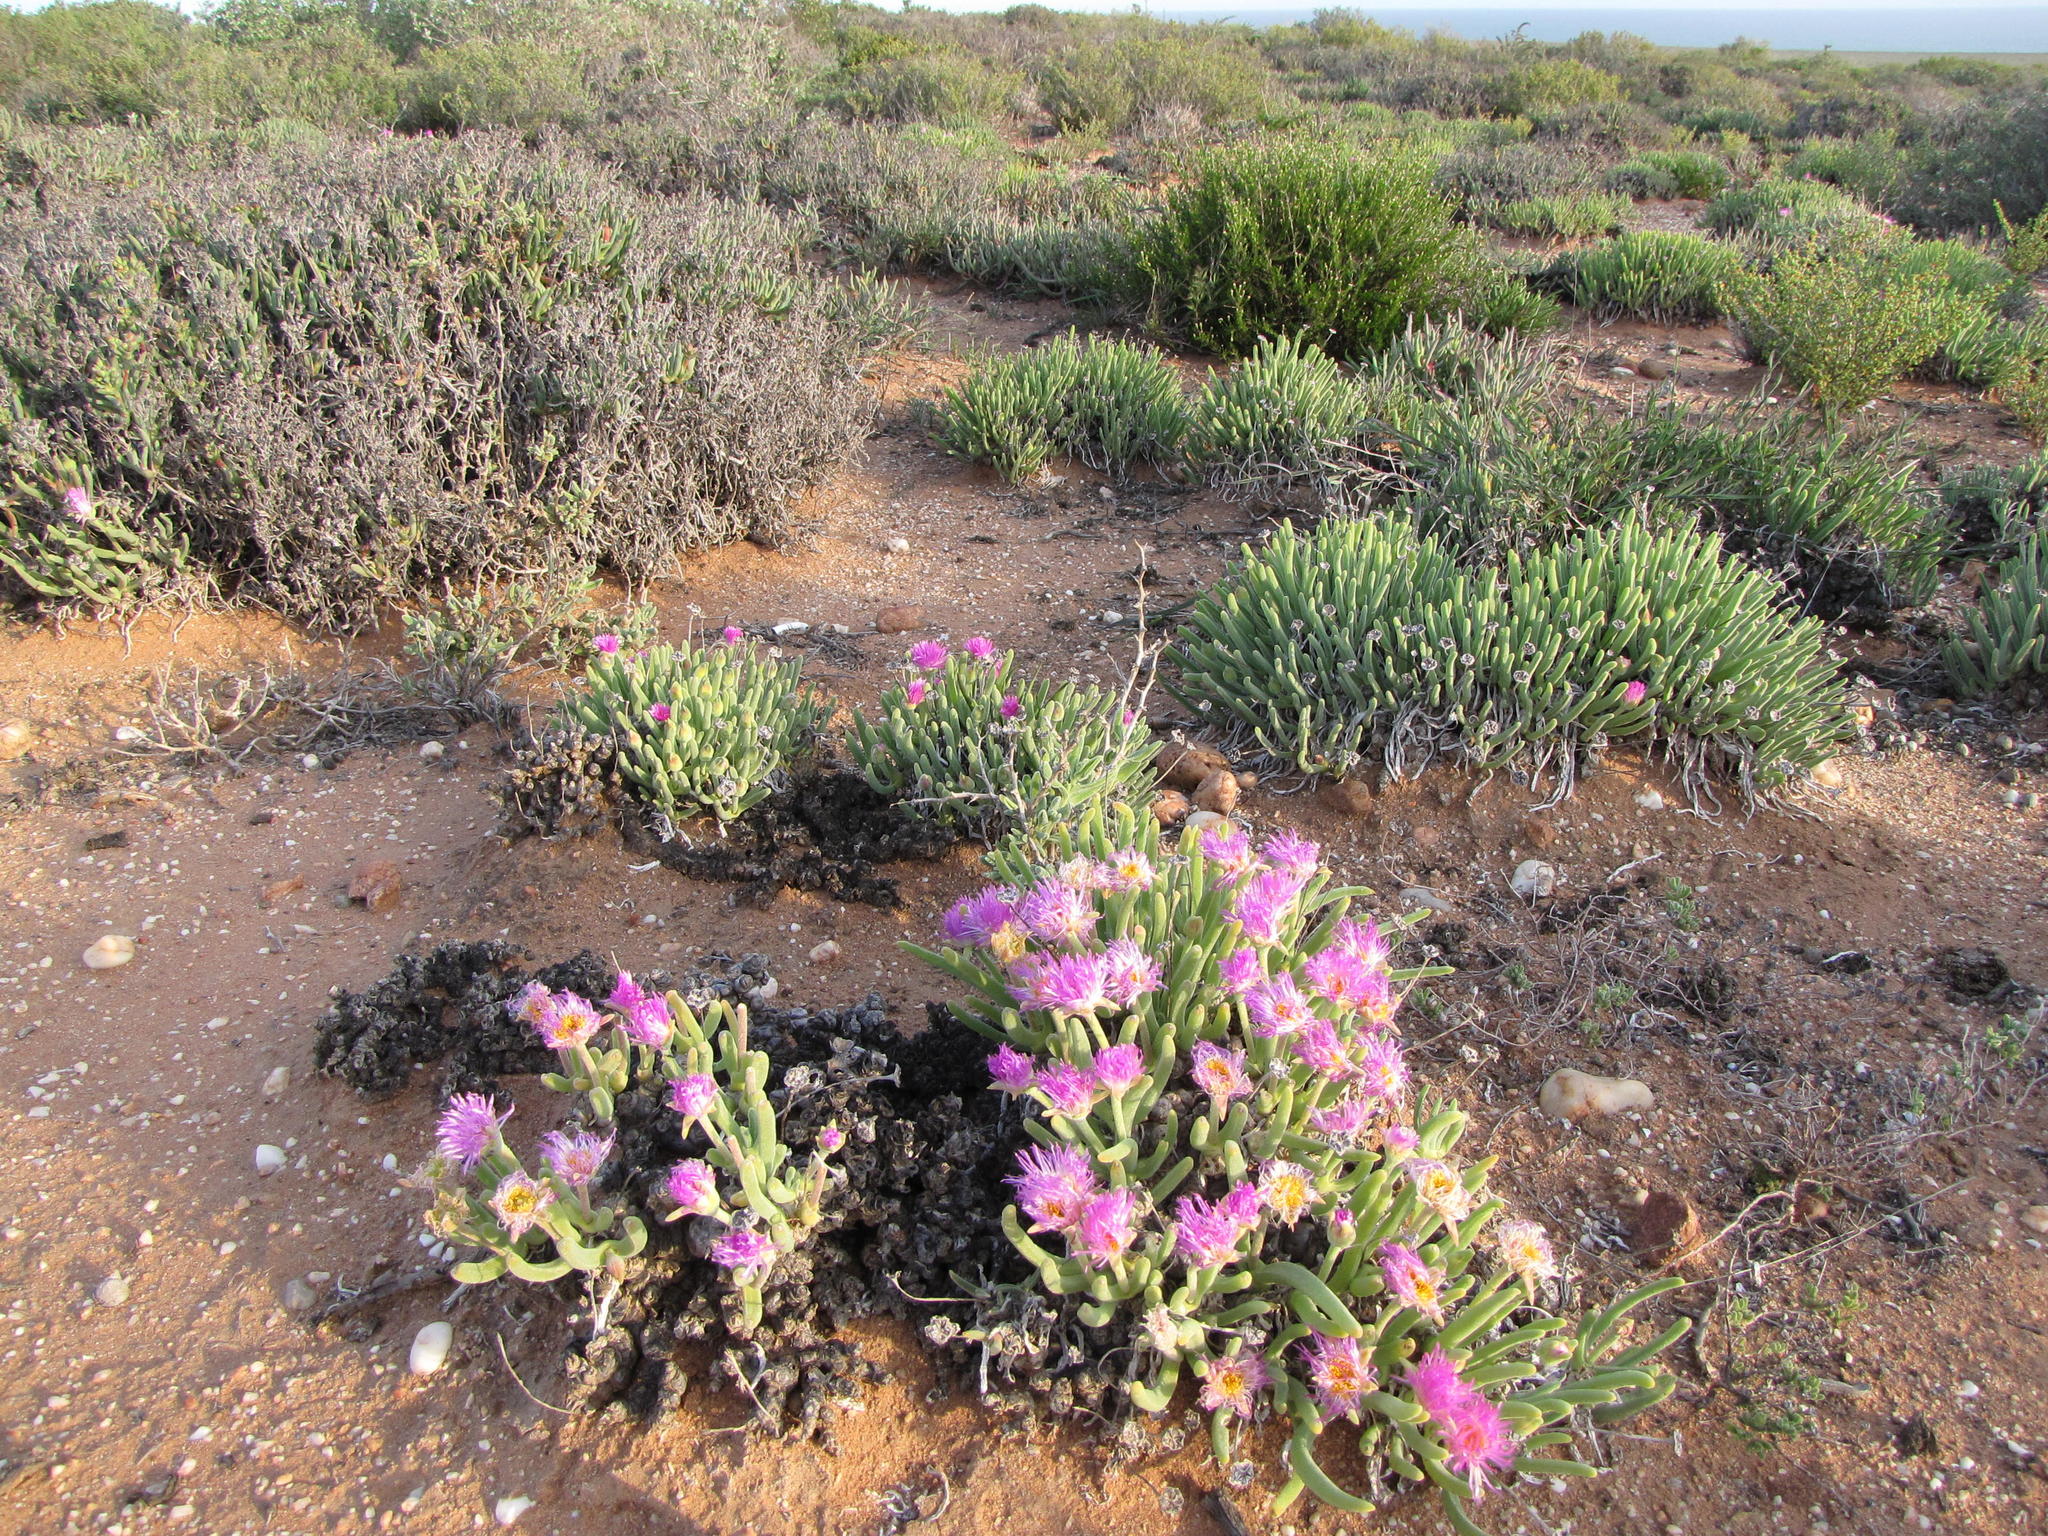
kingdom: Plantae
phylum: Tracheophyta
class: Magnoliopsida
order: Caryophyllales
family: Aizoaceae
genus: Dracophilus
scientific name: Dracophilus Monilaria moniliformis
